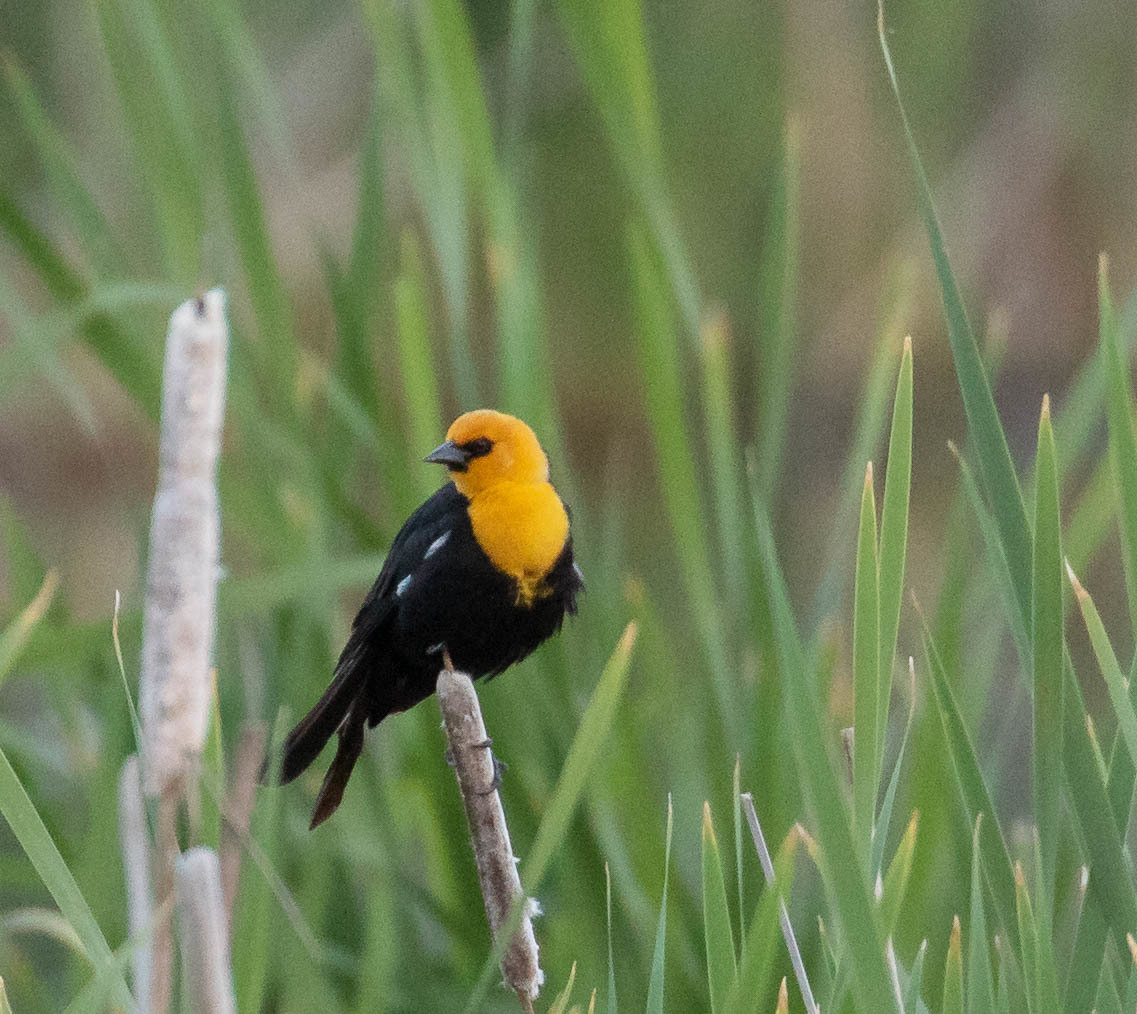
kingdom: Animalia
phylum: Chordata
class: Aves
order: Passeriformes
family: Icteridae
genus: Xanthocephalus
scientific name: Xanthocephalus xanthocephalus
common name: Yellow-headed blackbird
